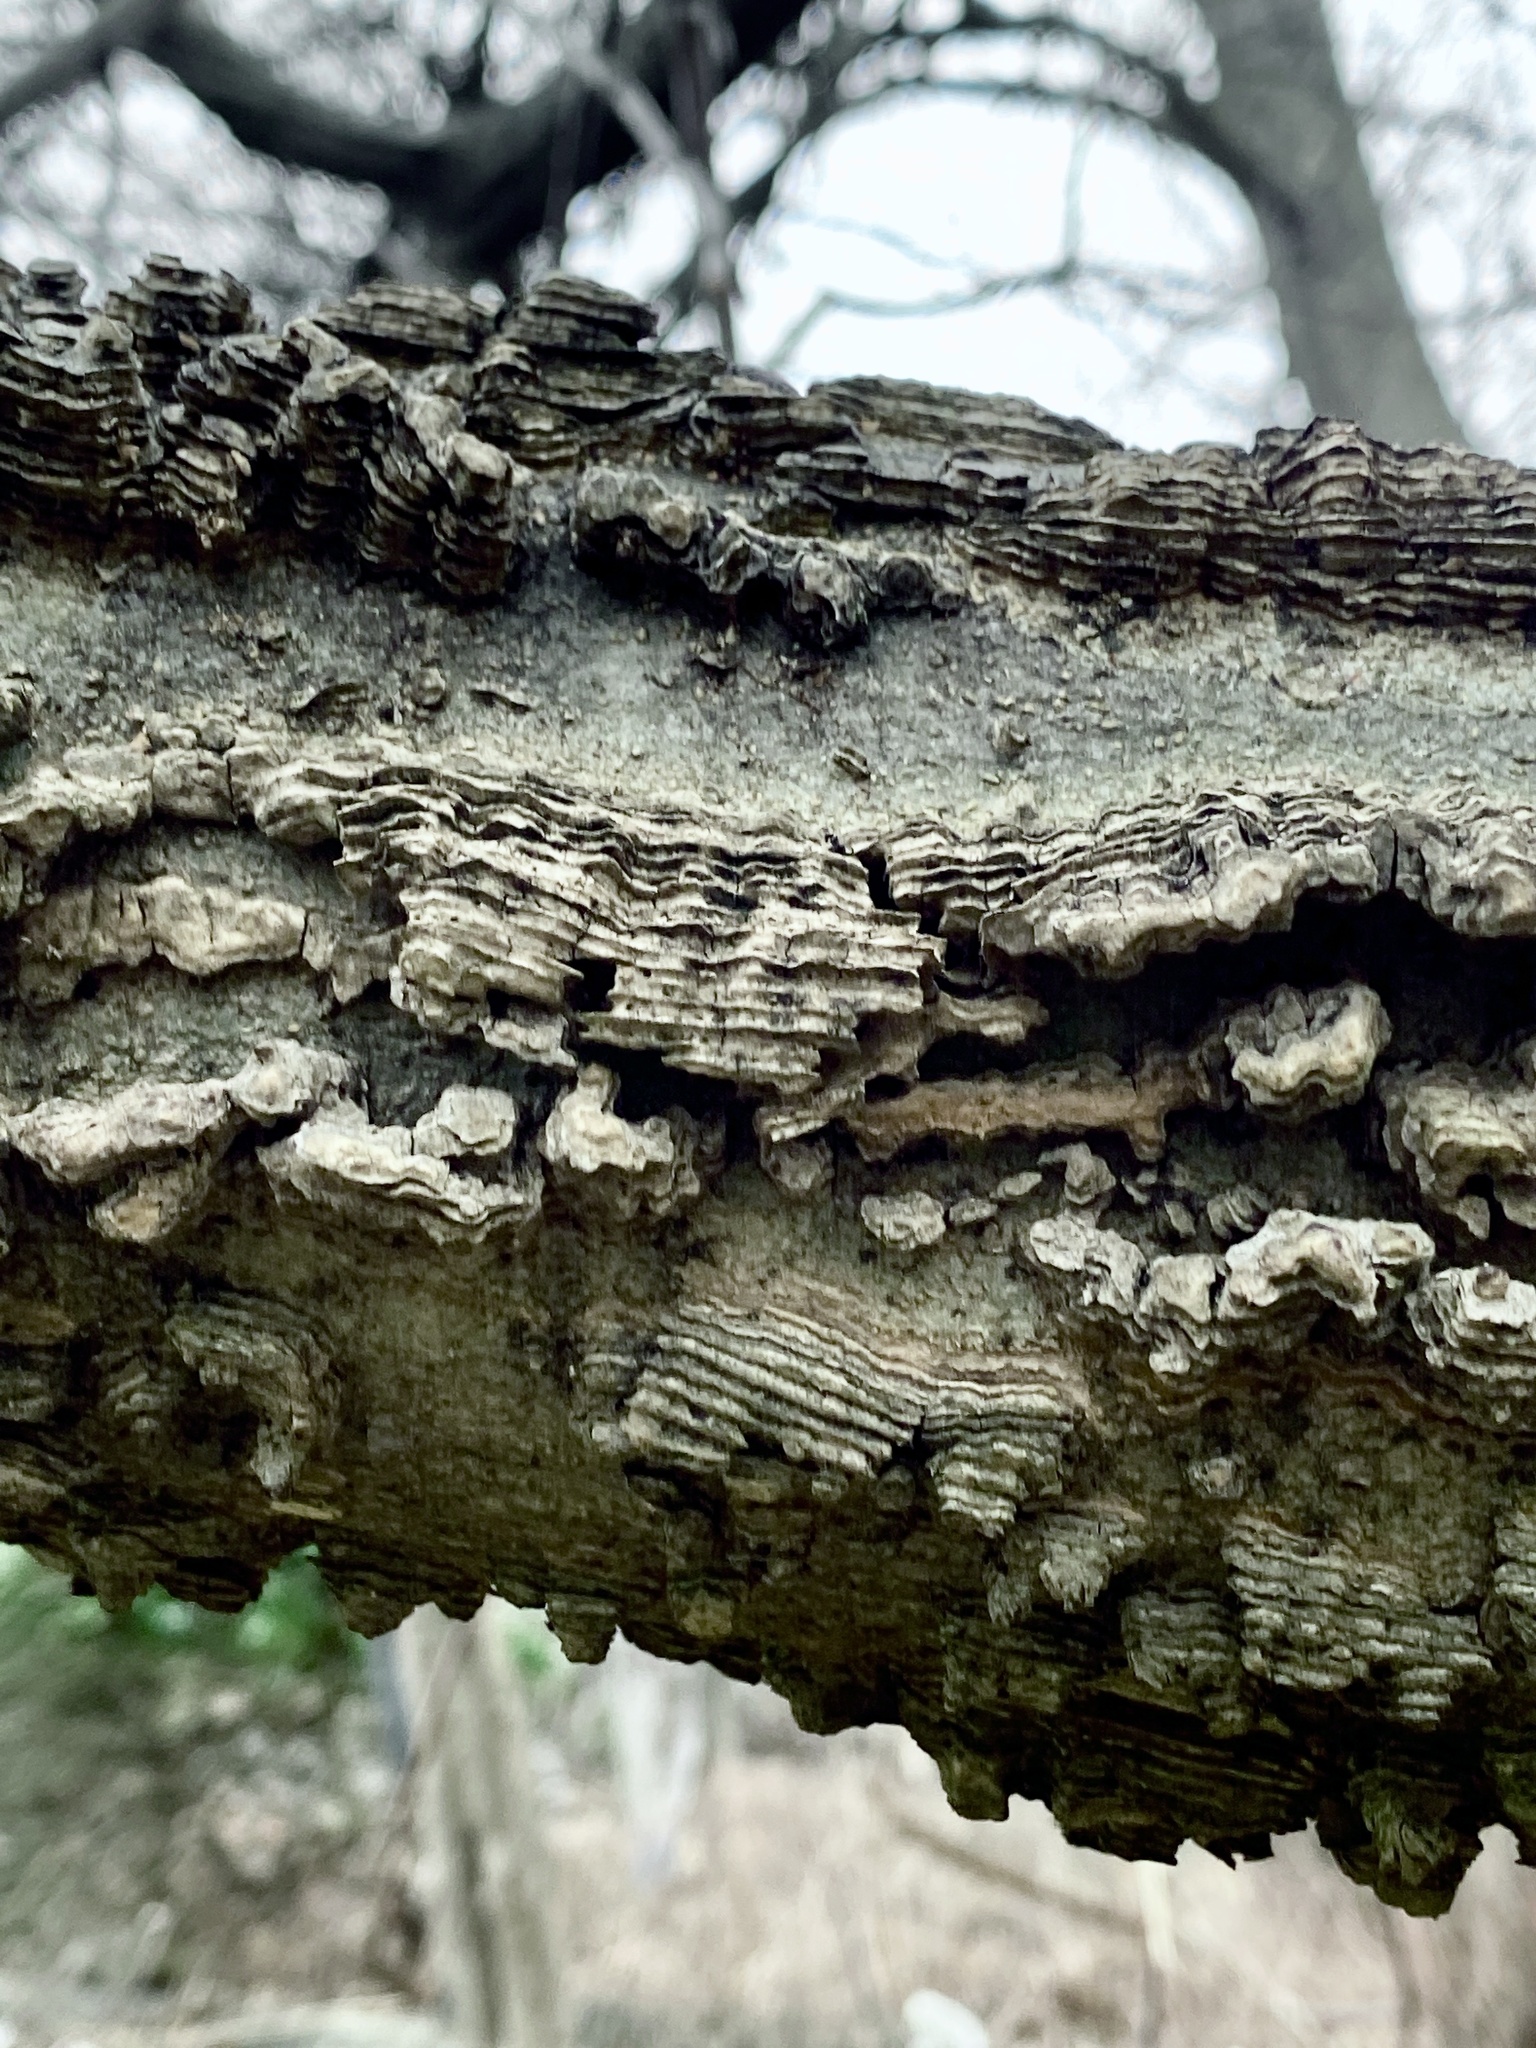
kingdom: Plantae
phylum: Tracheophyta
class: Magnoliopsida
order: Rosales
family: Cannabaceae
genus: Celtis
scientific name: Celtis occidentalis
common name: Common hackberry
